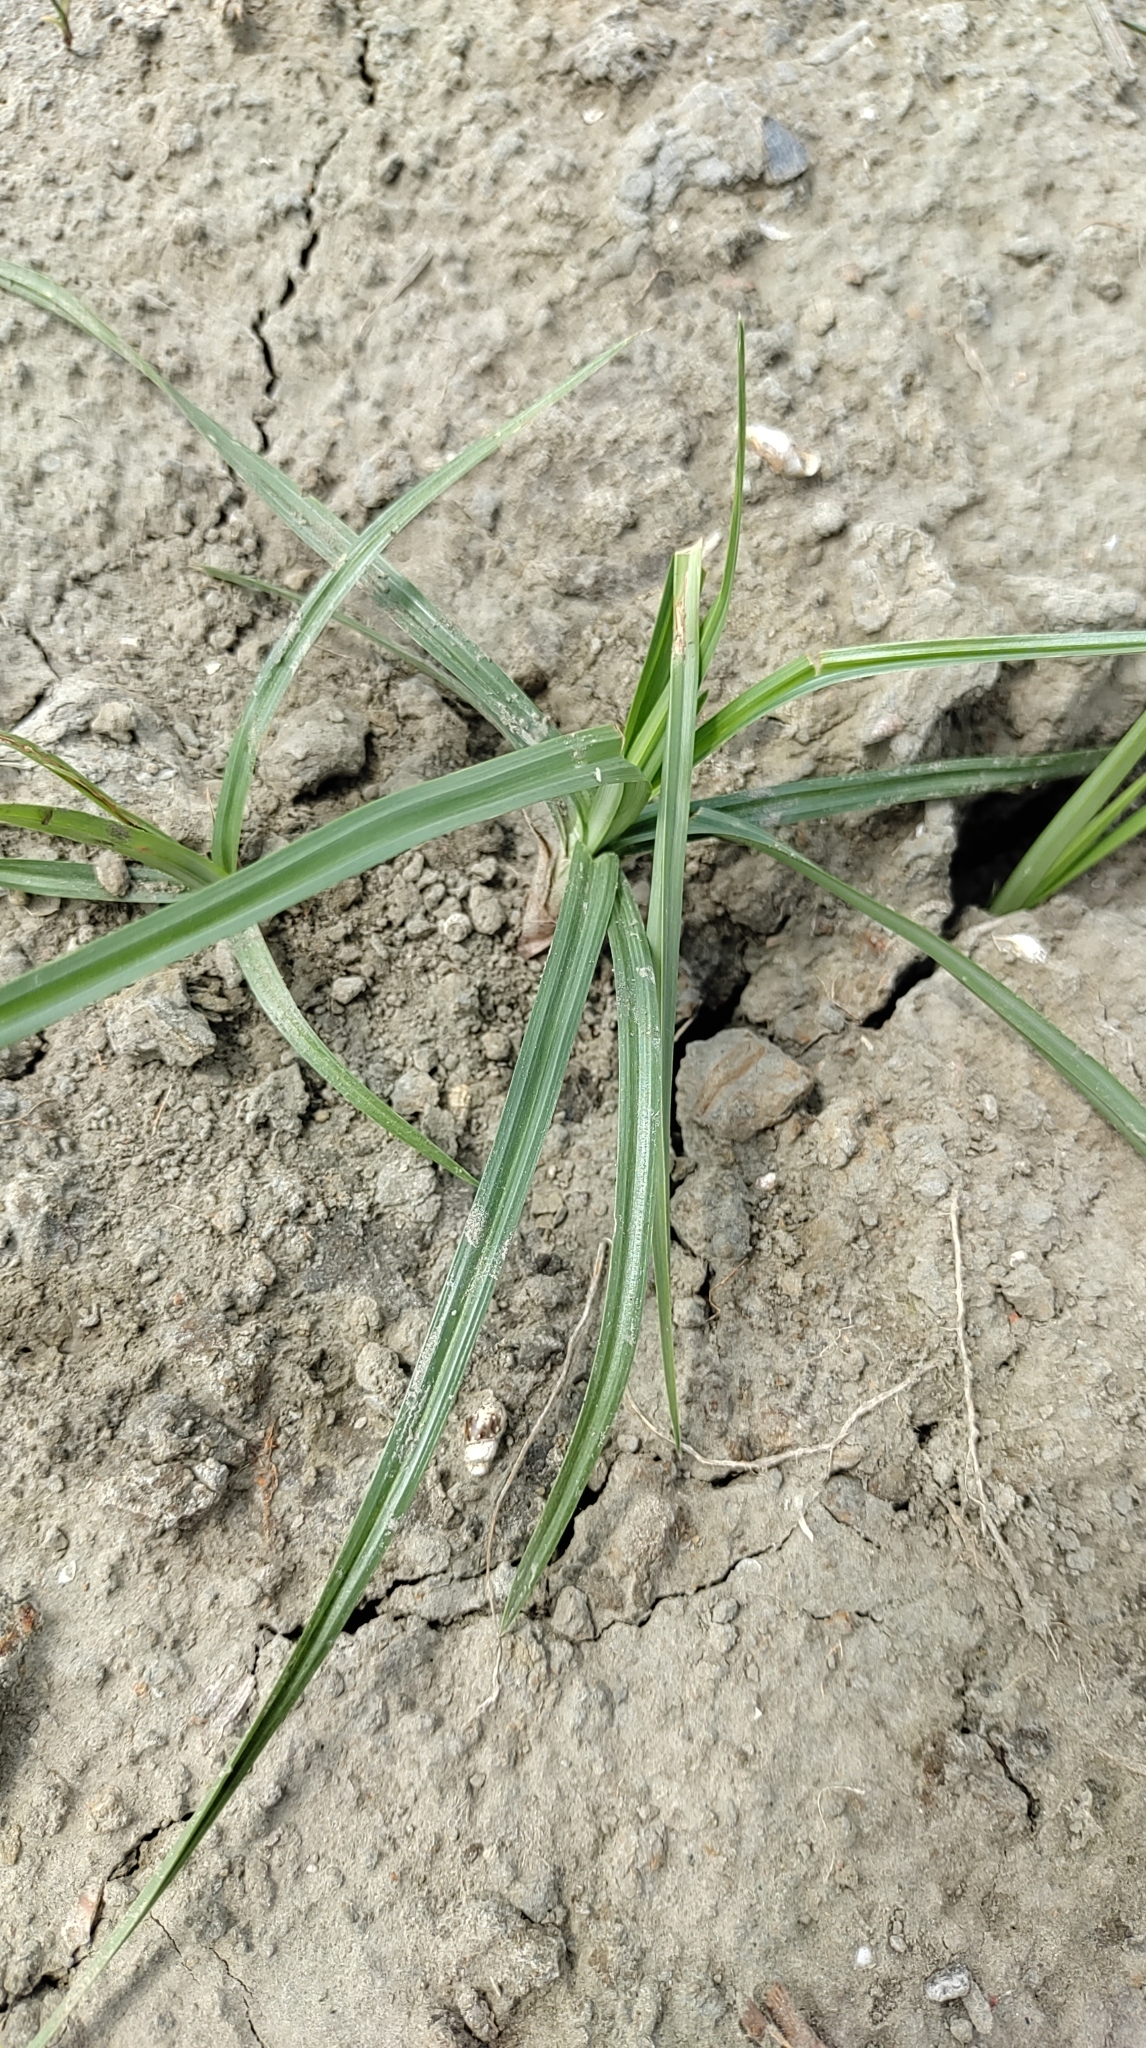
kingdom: Plantae
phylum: Tracheophyta
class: Liliopsida
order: Poales
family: Cyperaceae
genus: Cyperus
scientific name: Cyperus rotundus
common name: Nutgrass
